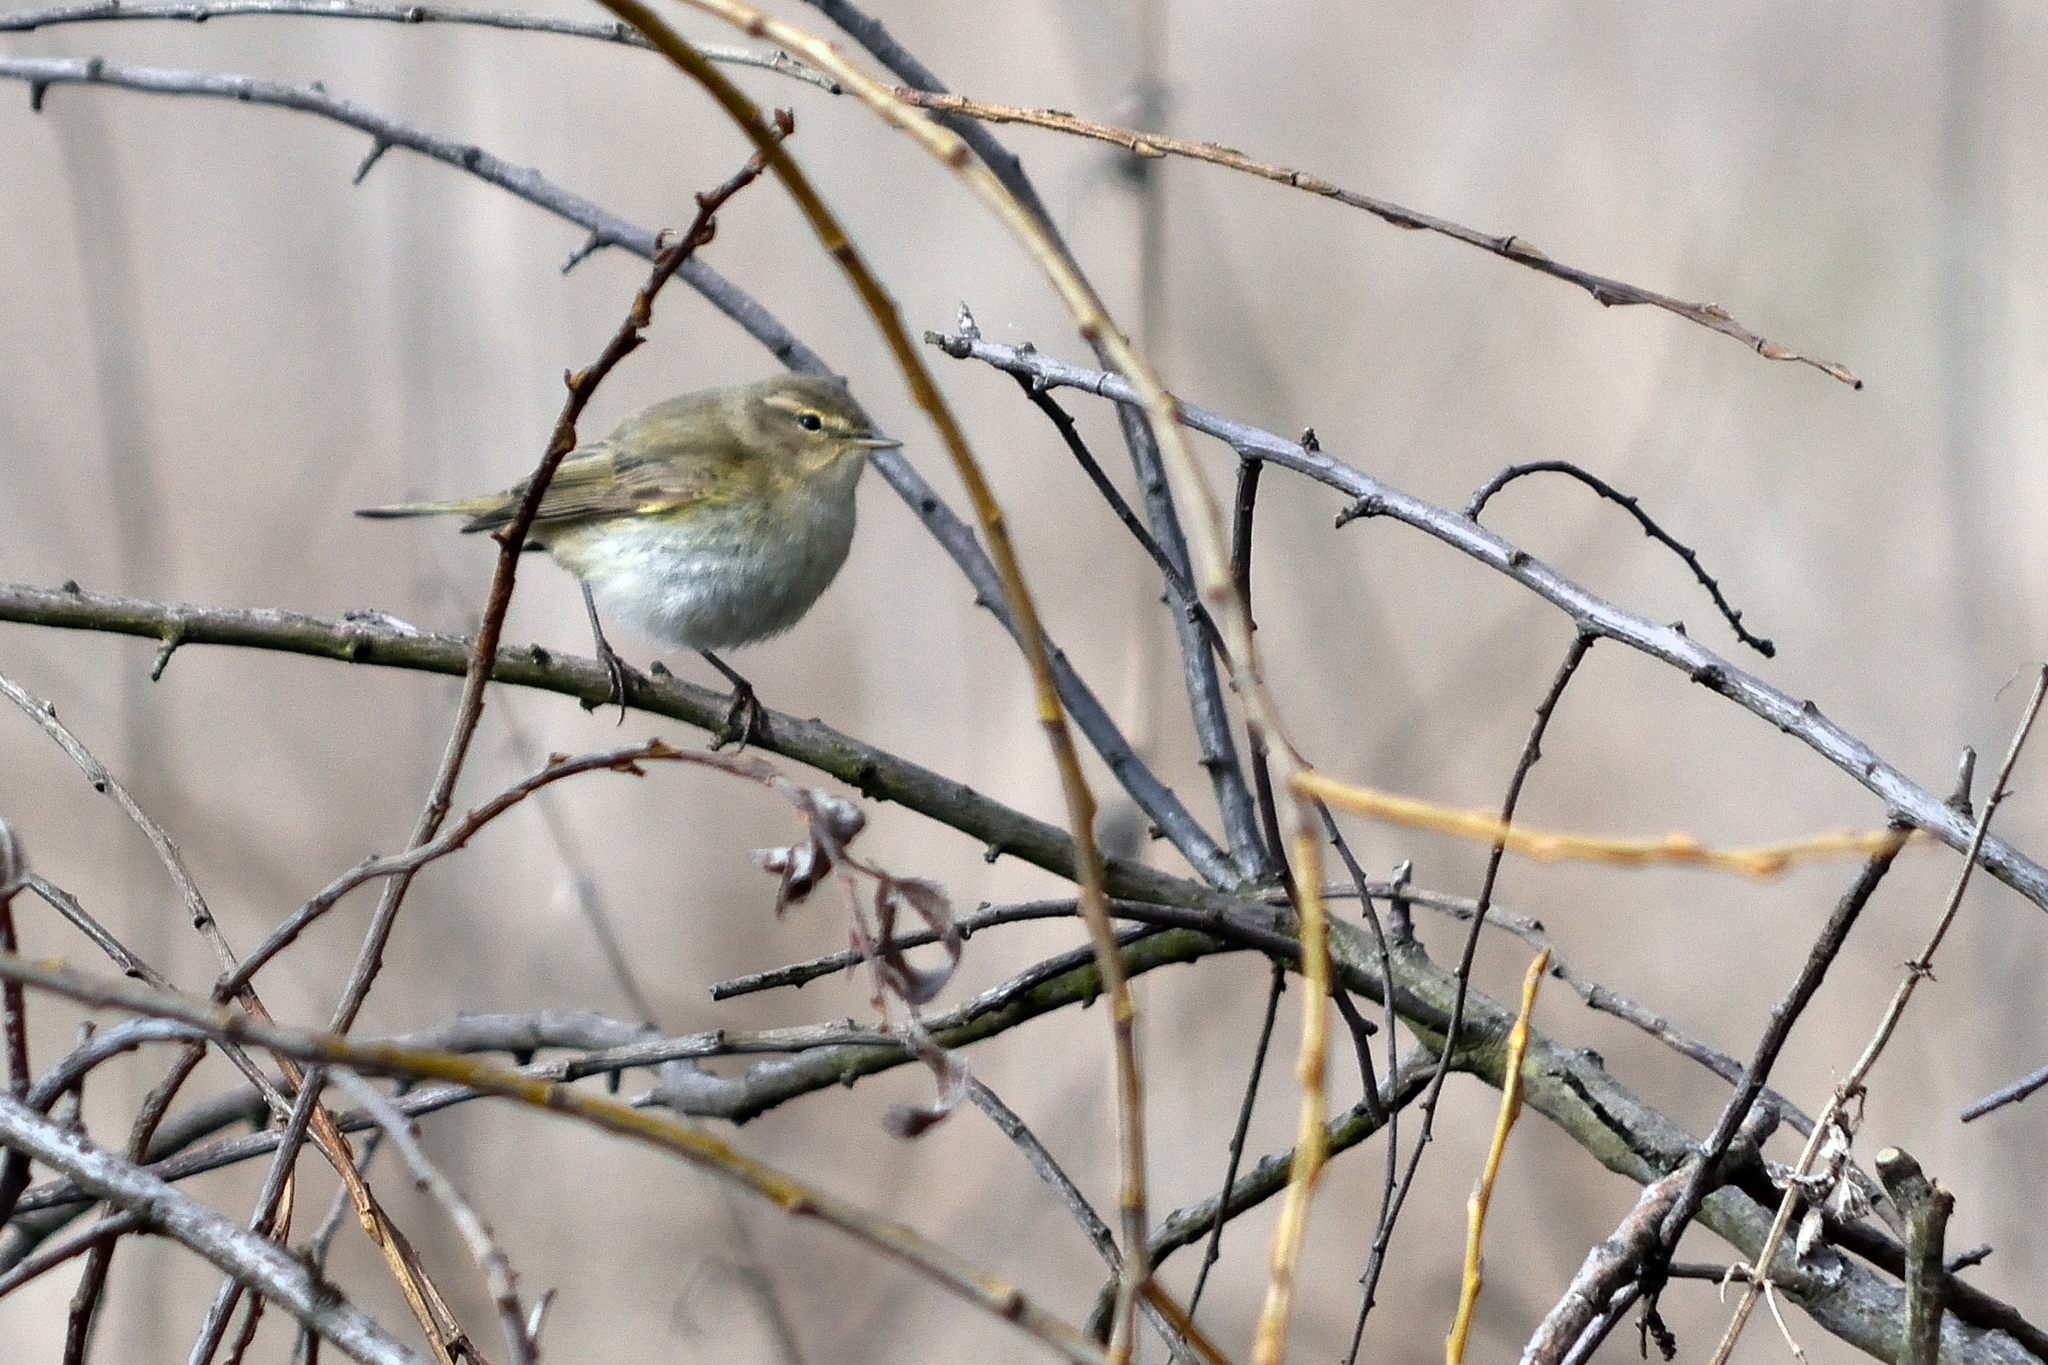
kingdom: Animalia
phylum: Chordata
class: Aves
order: Passeriformes
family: Phylloscopidae
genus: Phylloscopus
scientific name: Phylloscopus collybita
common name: Common chiffchaff
